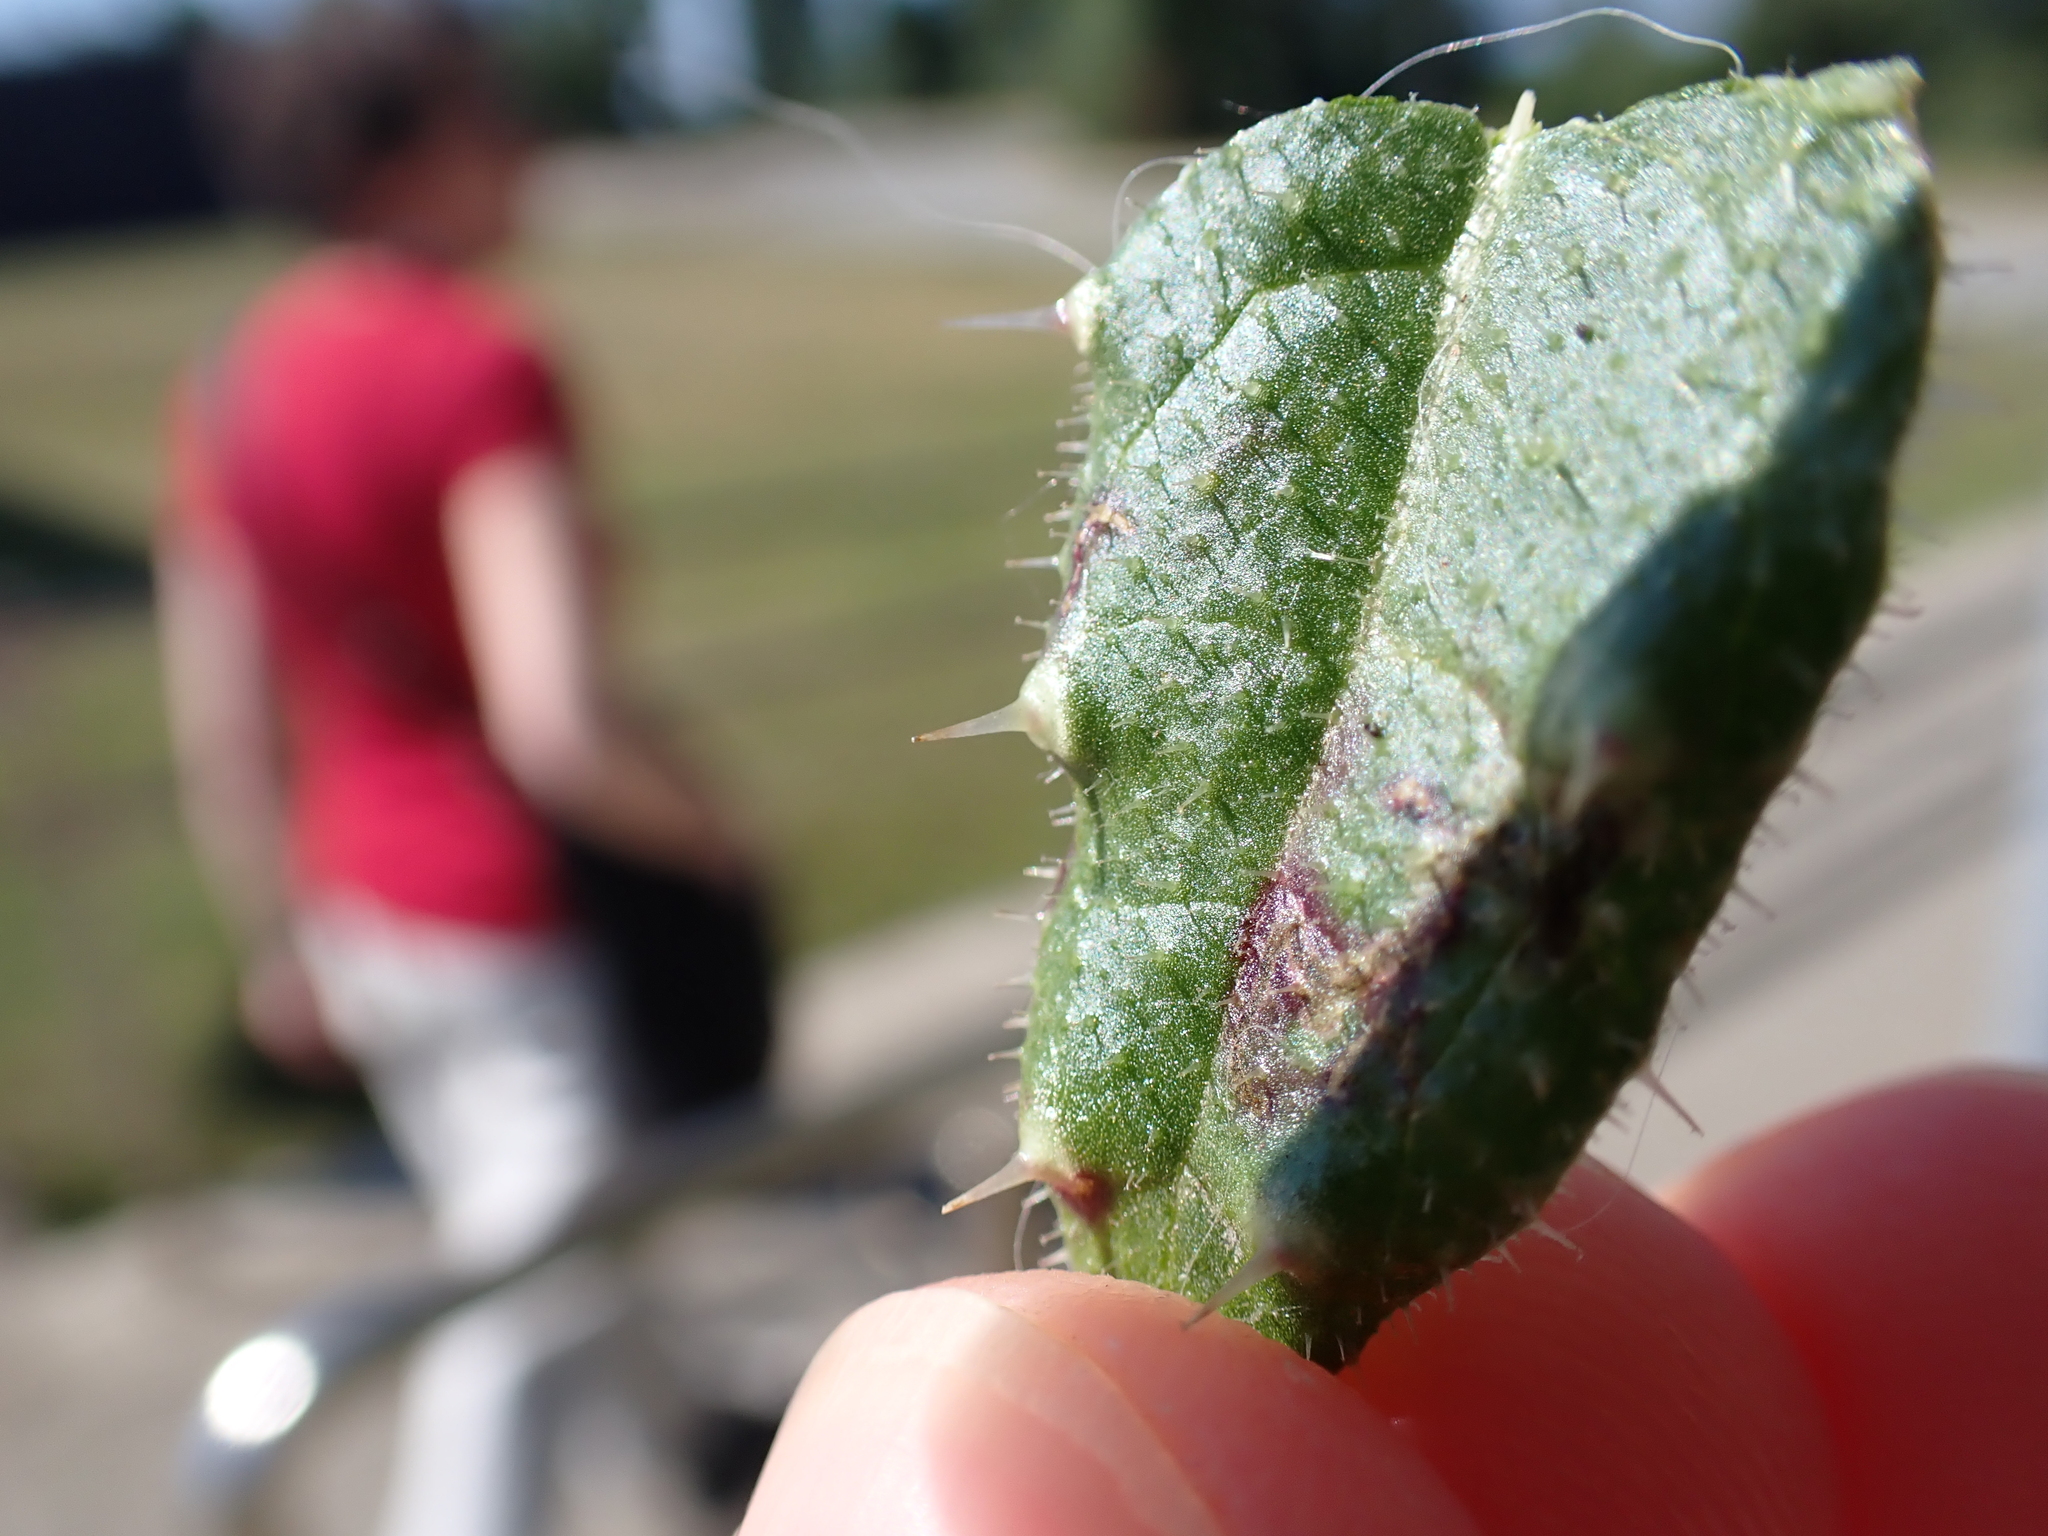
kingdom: Plantae
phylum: Tracheophyta
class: Magnoliopsida
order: Asterales
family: Asteraceae
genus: Helminthotheca
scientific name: Helminthotheca echioides
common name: Ox-tongue
